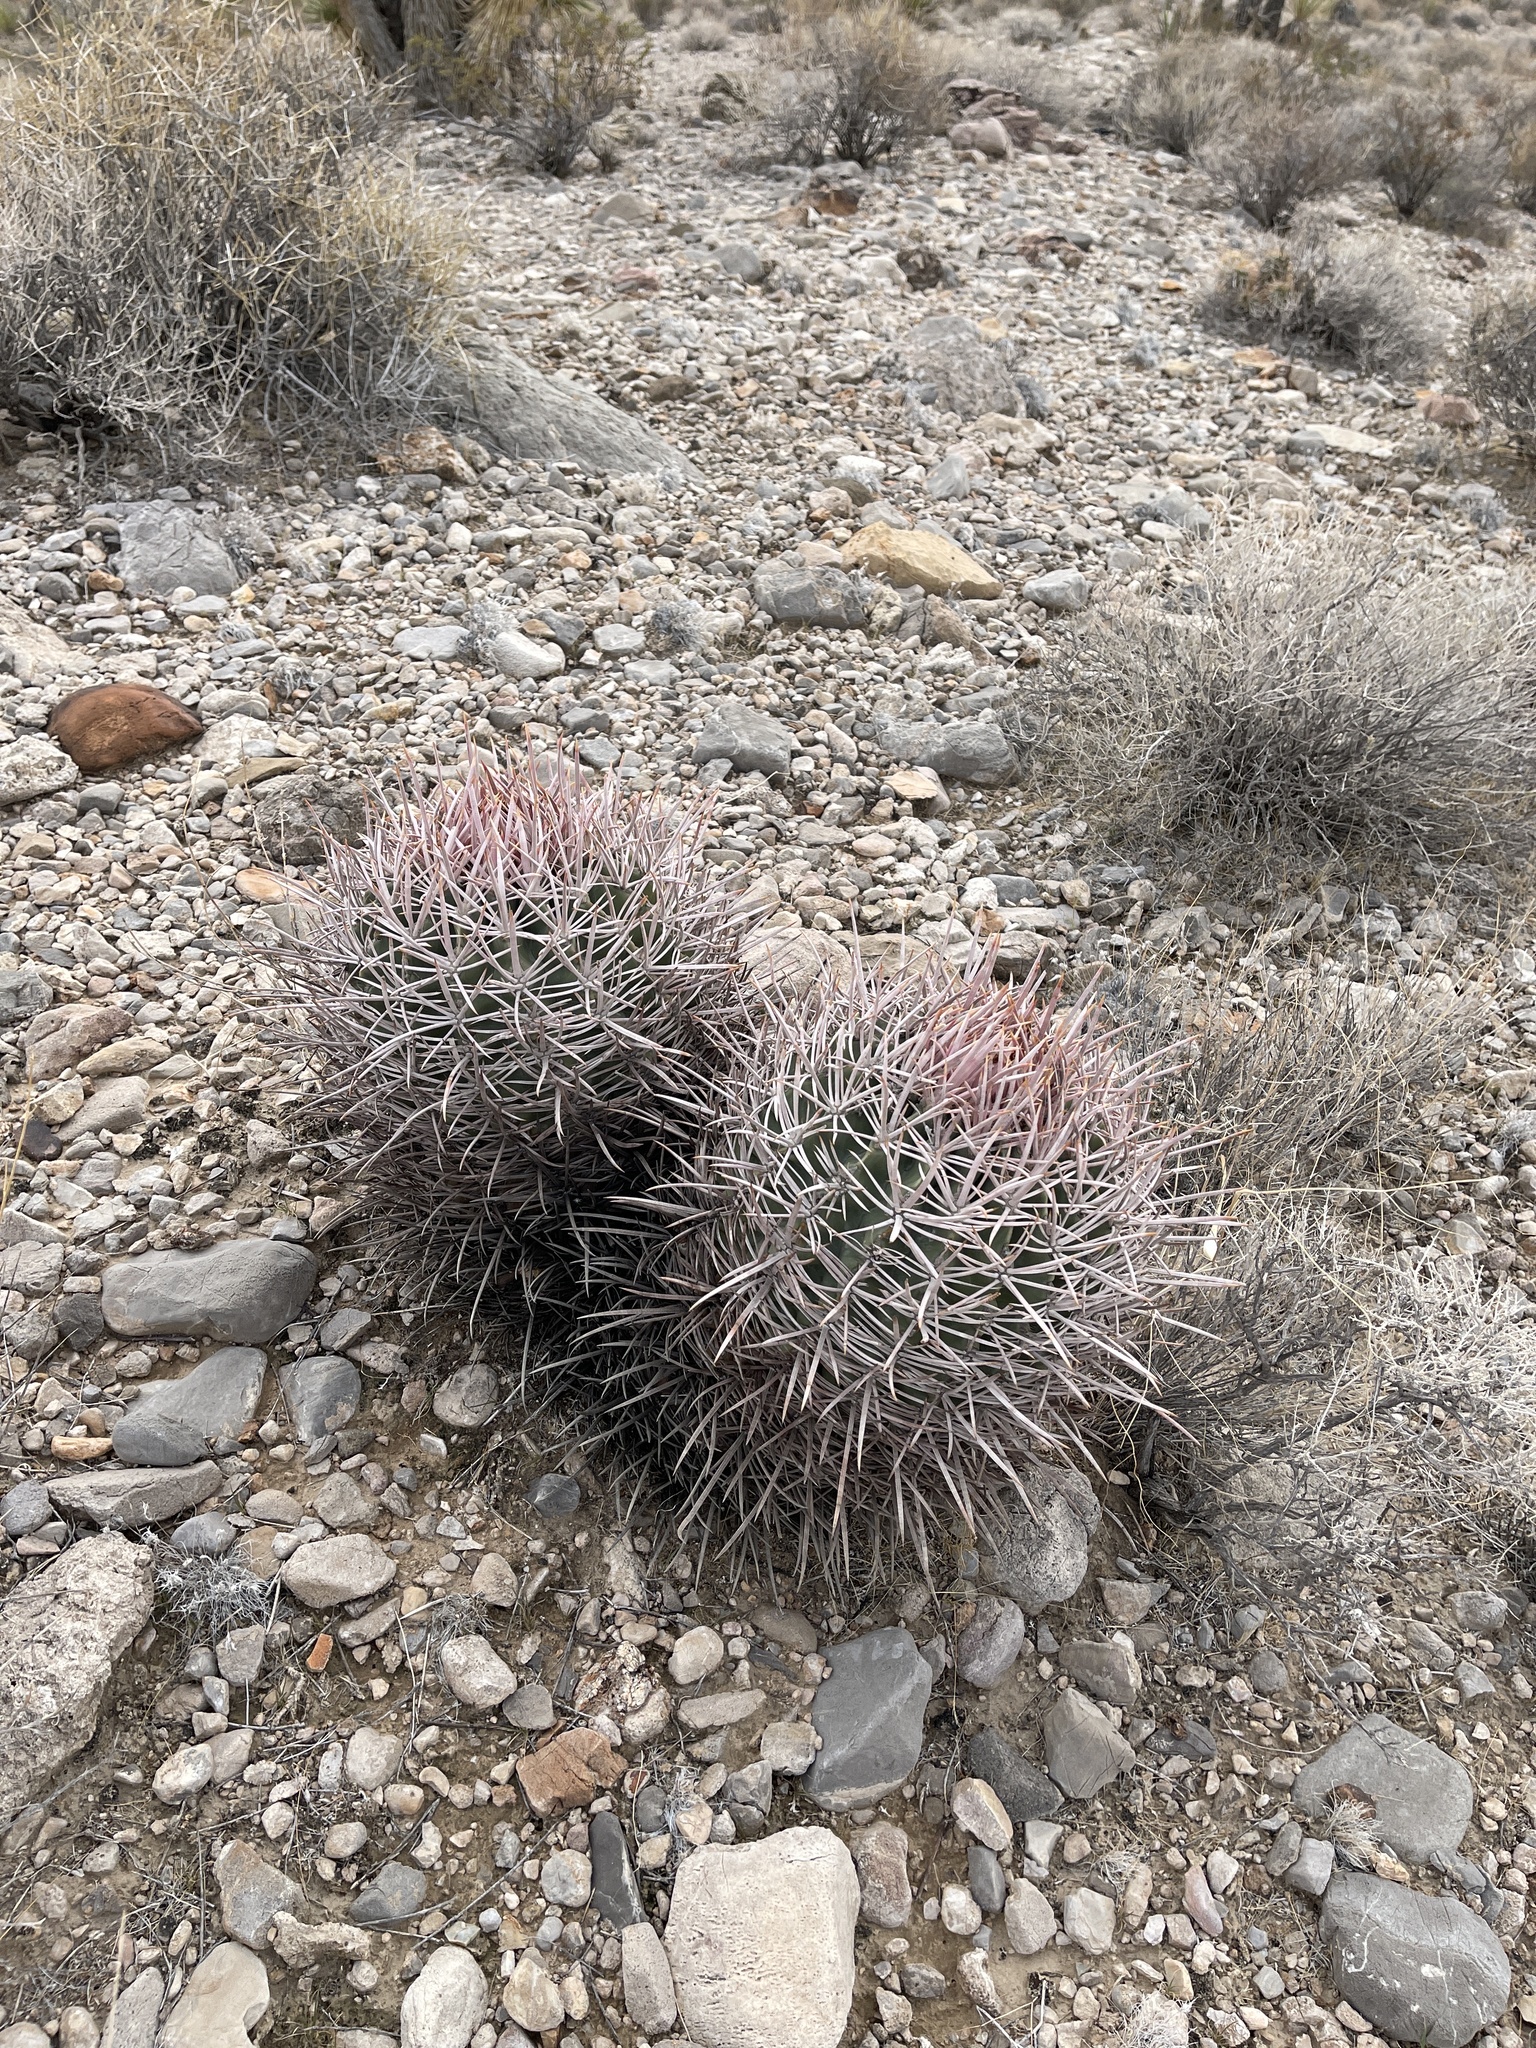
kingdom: Plantae
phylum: Tracheophyta
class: Magnoliopsida
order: Caryophyllales
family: Cactaceae
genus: Echinocactus
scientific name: Echinocactus polycephalus
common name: Cottontop cactus
